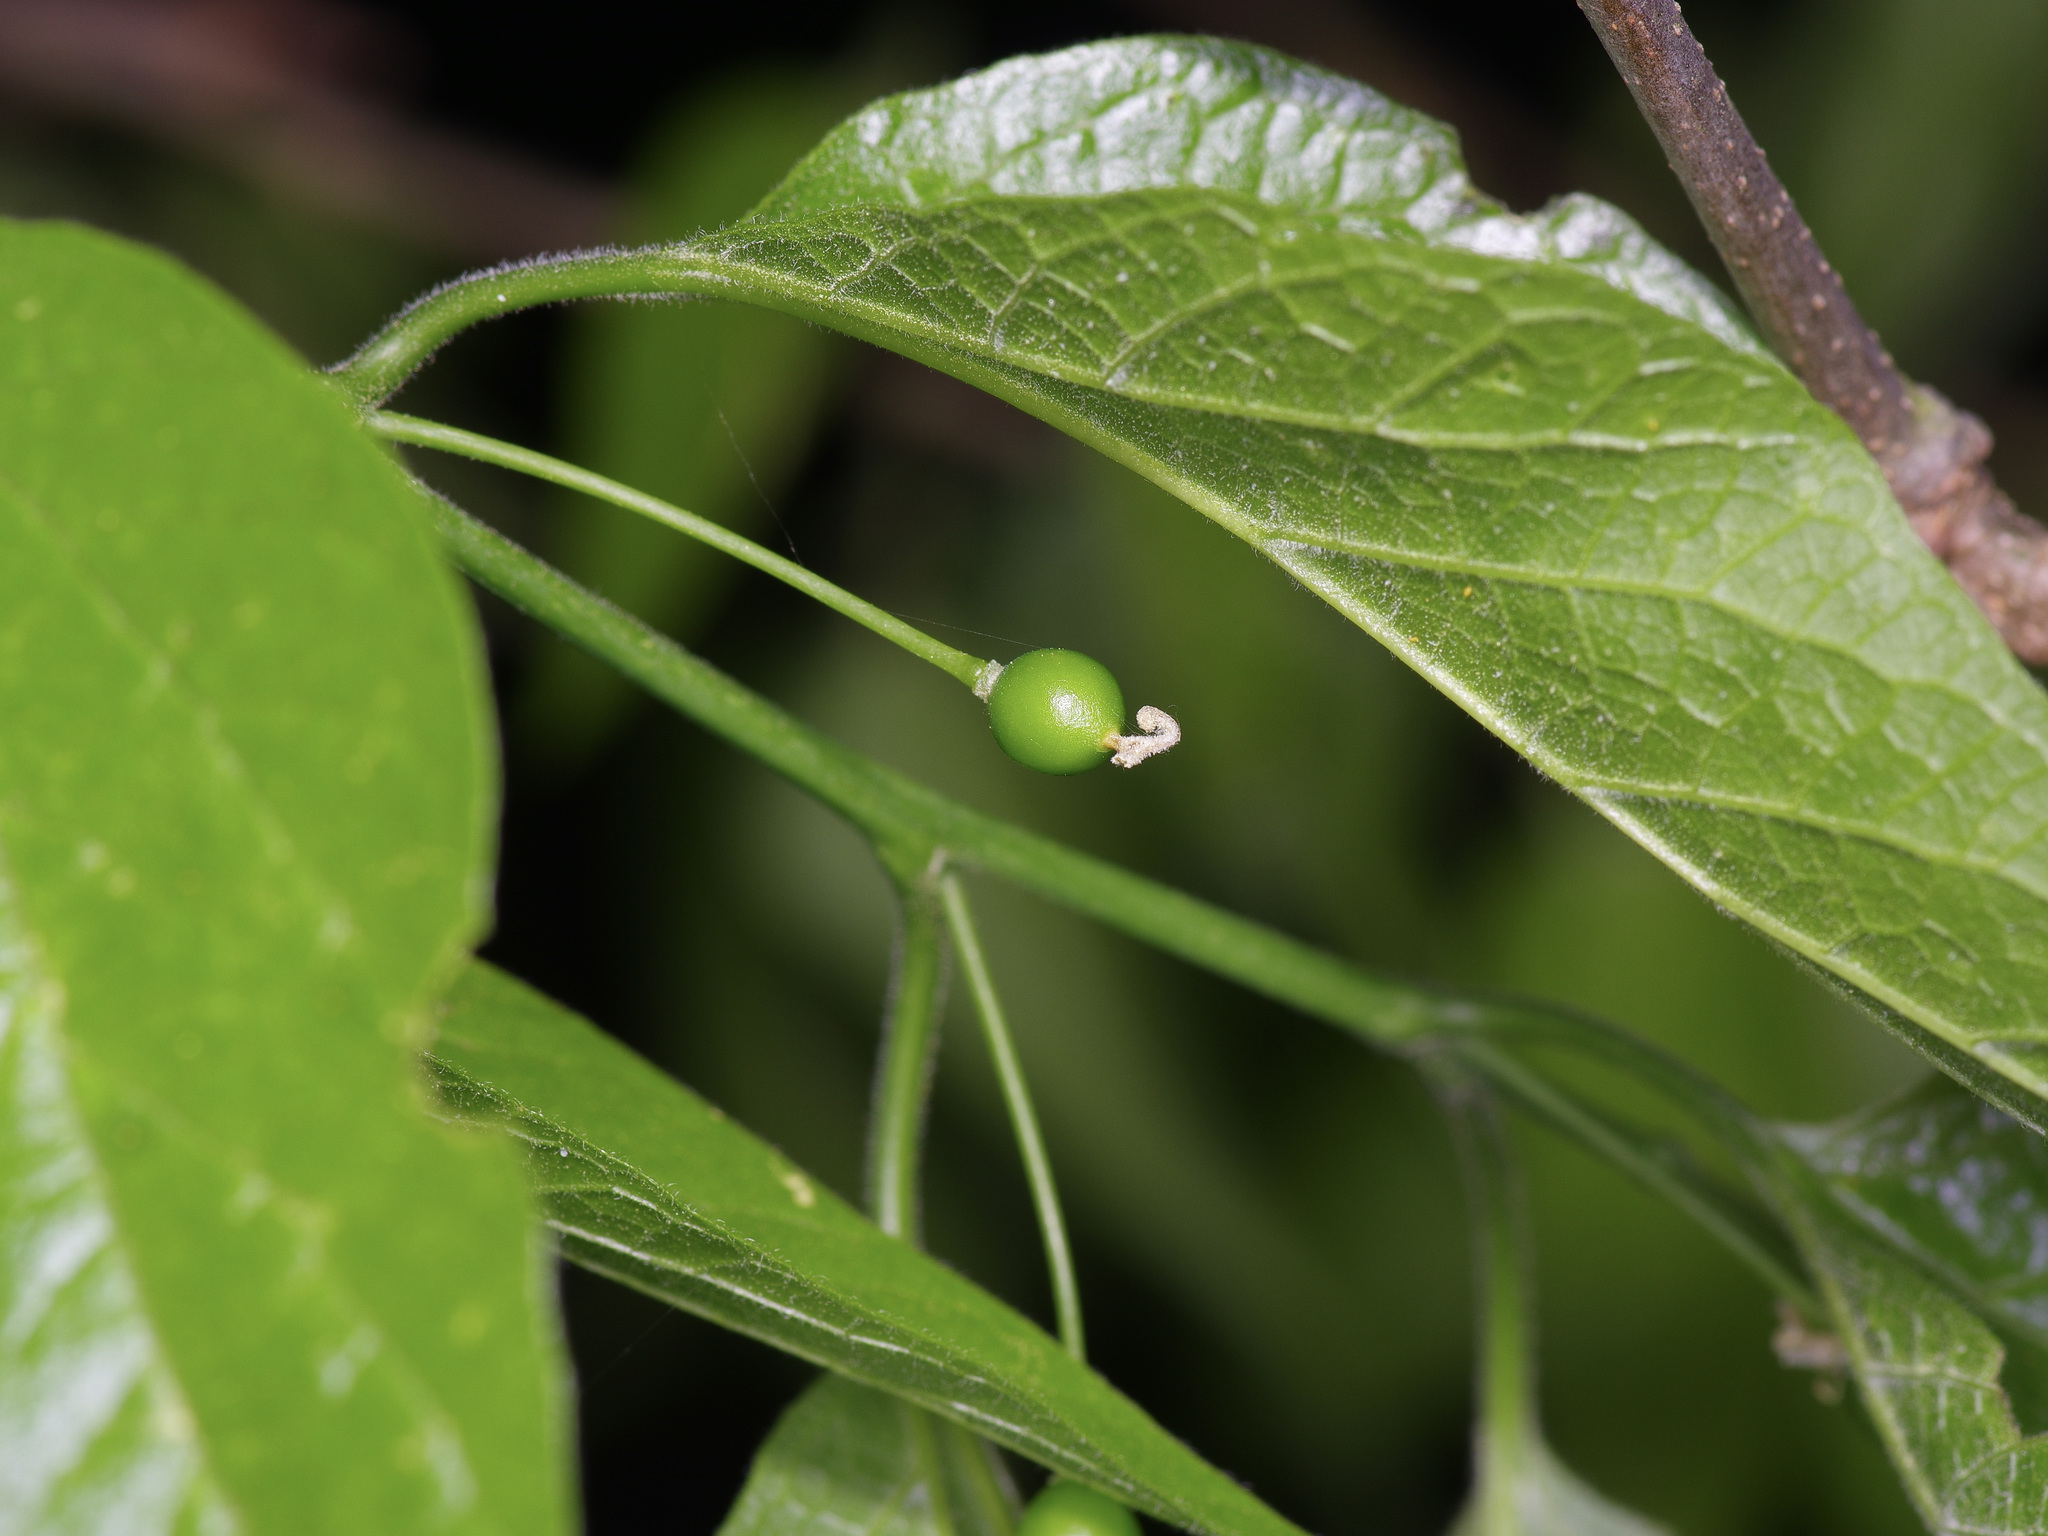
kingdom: Plantae
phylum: Tracheophyta
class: Magnoliopsida
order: Rosales
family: Cannabaceae
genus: Celtis
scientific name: Celtis laevigata
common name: Sugarberry
